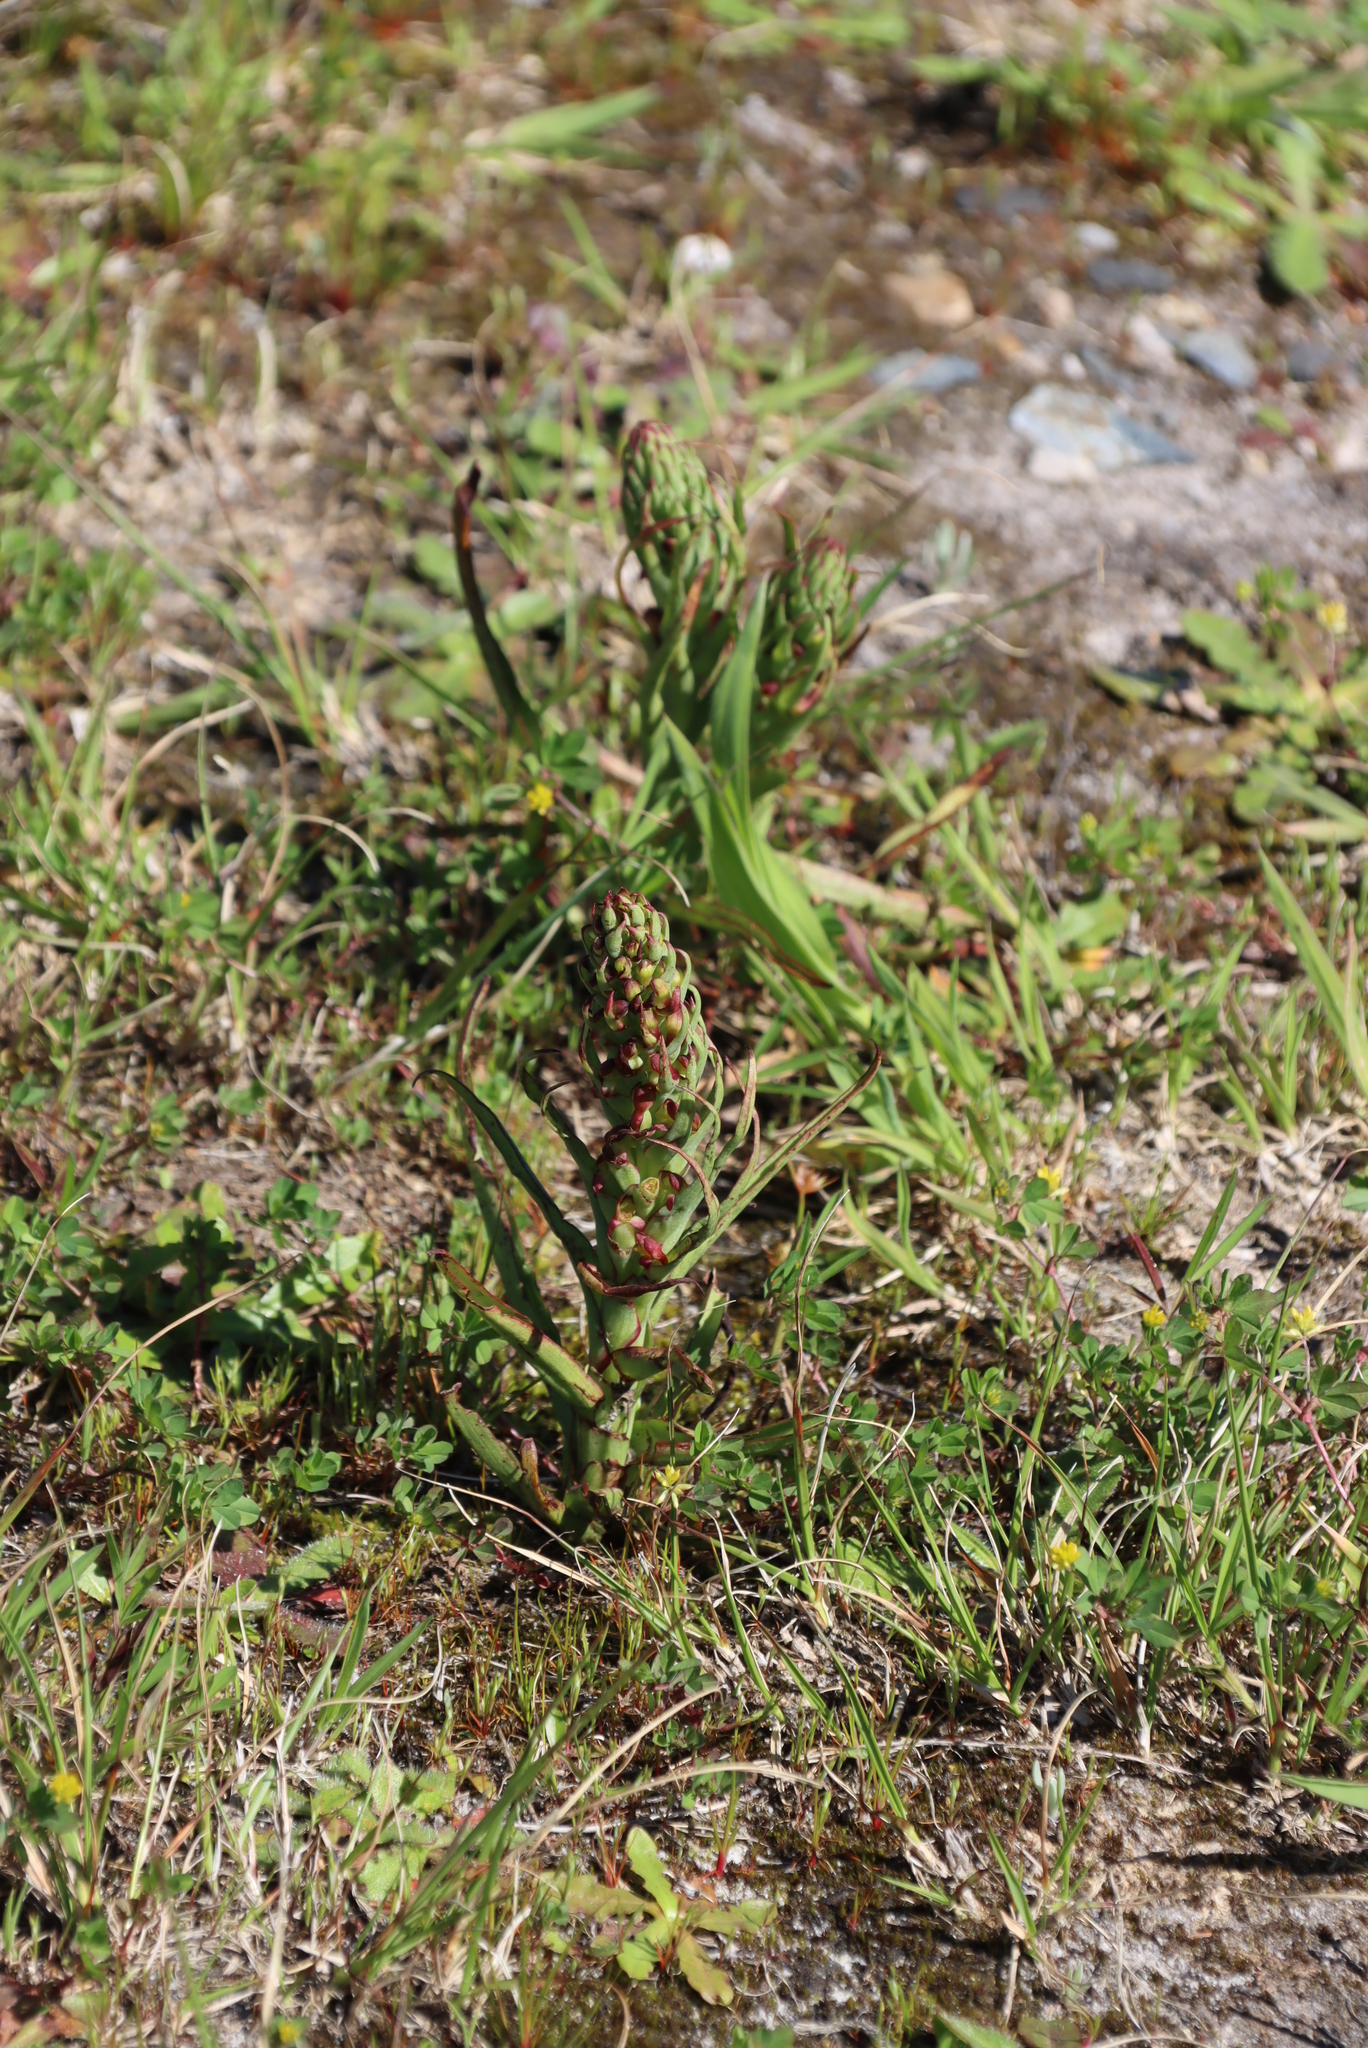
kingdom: Plantae
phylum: Tracheophyta
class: Liliopsida
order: Asparagales
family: Orchidaceae
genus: Disa
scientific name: Disa bracteata
